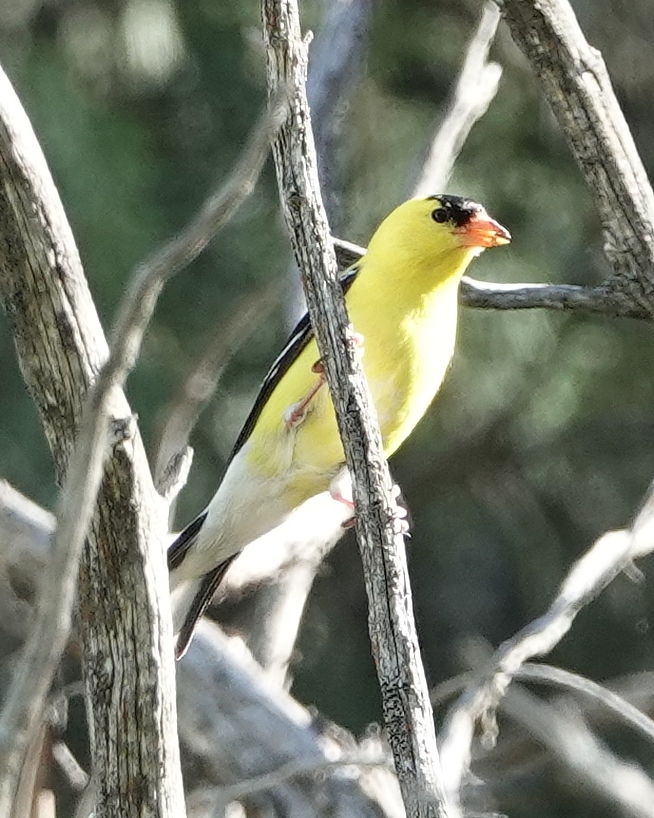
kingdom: Animalia
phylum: Chordata
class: Aves
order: Passeriformes
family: Fringillidae
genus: Spinus
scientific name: Spinus tristis
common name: American goldfinch
